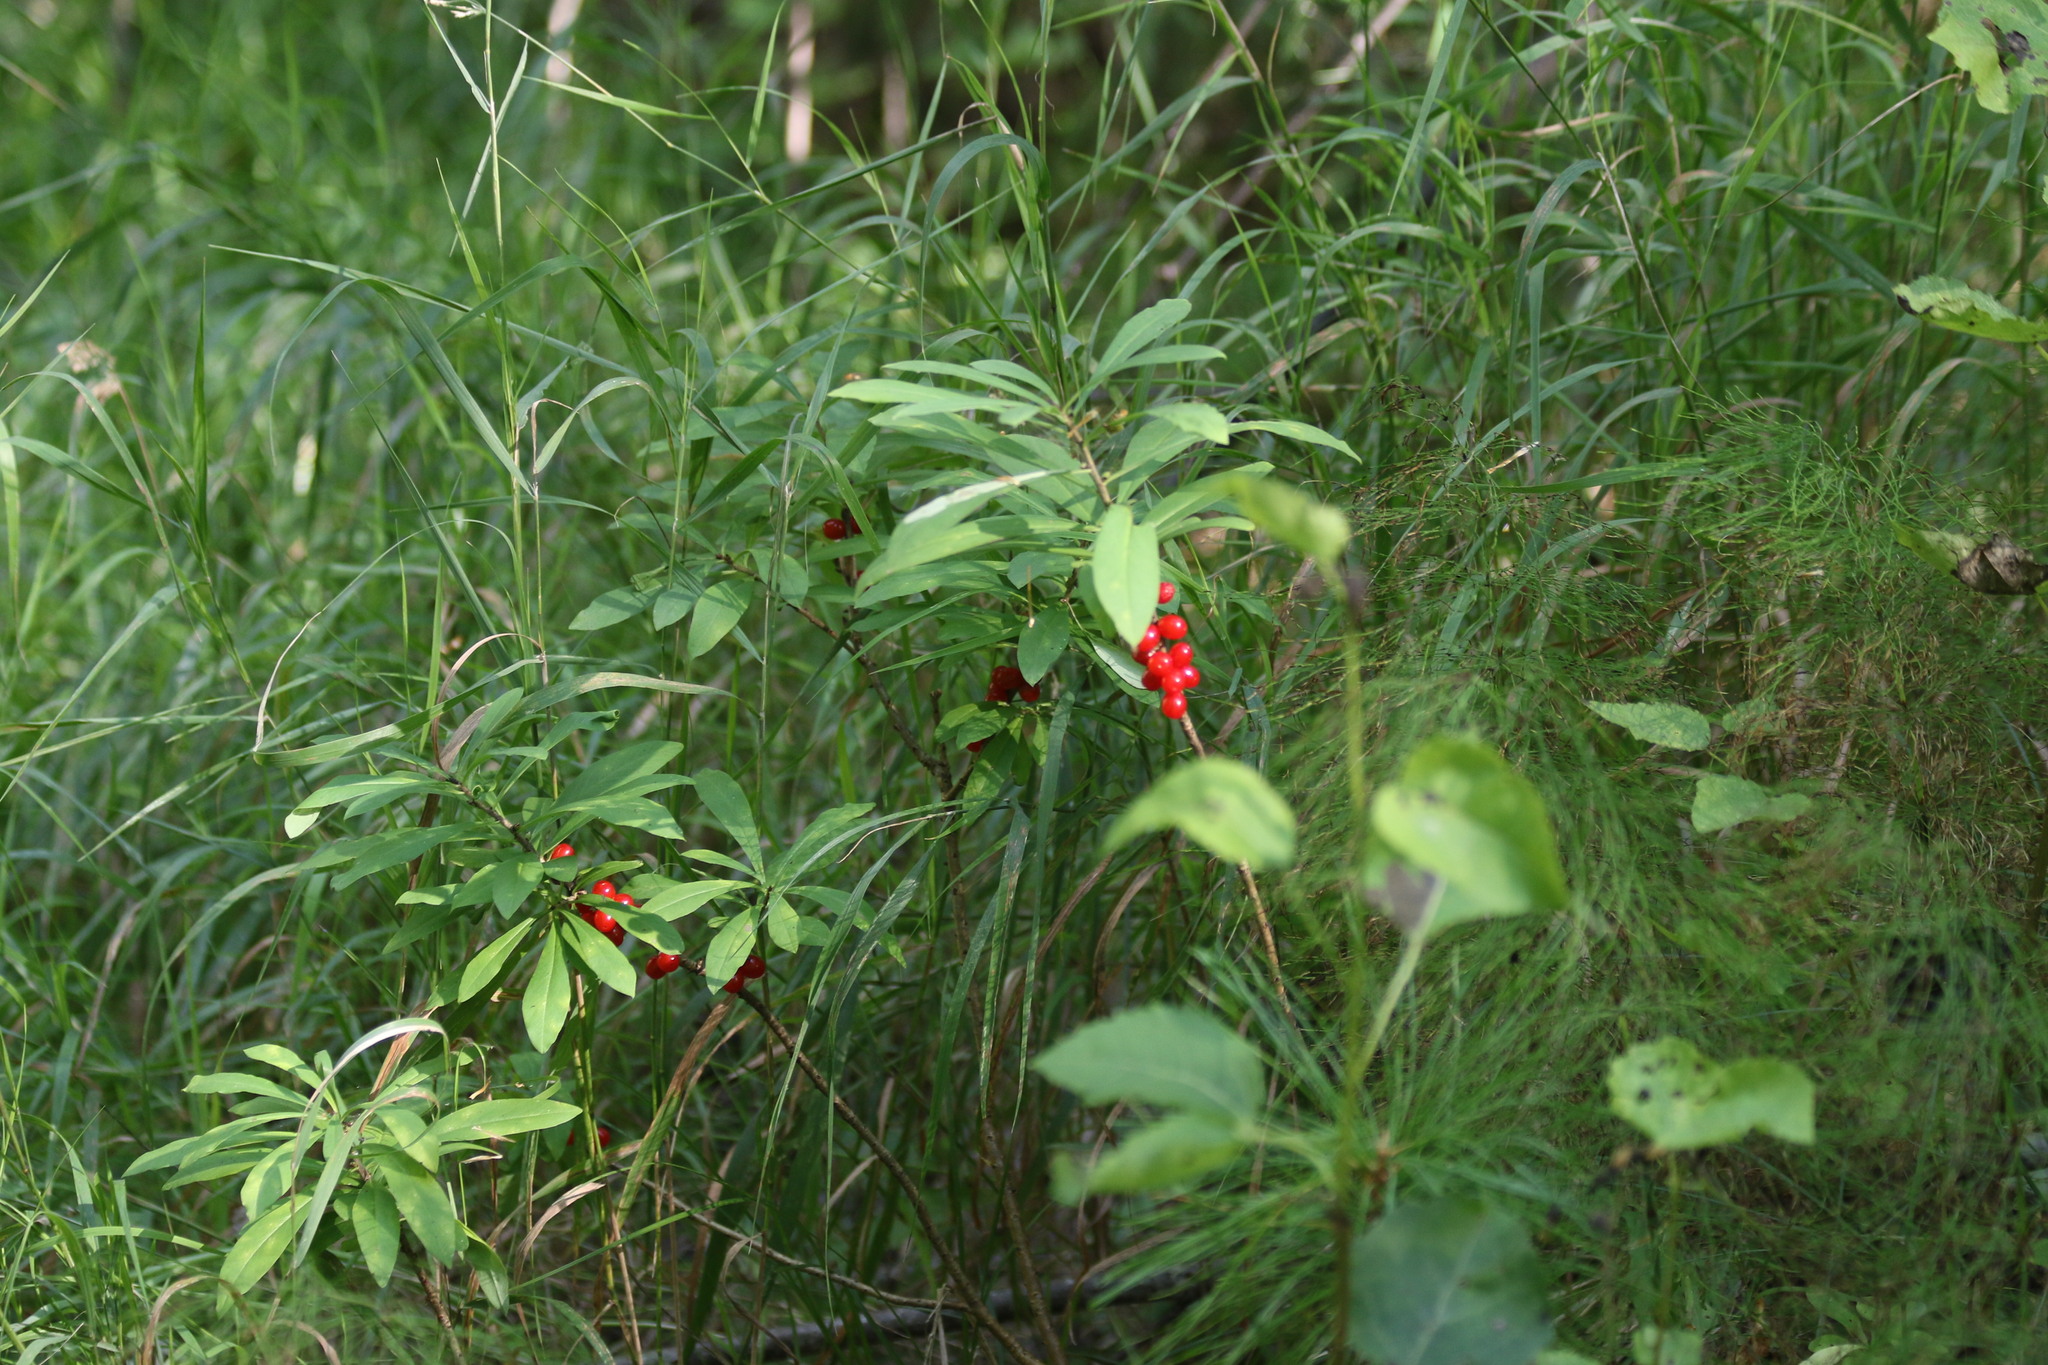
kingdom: Plantae
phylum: Tracheophyta
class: Magnoliopsida
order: Malvales
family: Thymelaeaceae
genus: Daphne
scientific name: Daphne mezereum
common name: Mezereon
